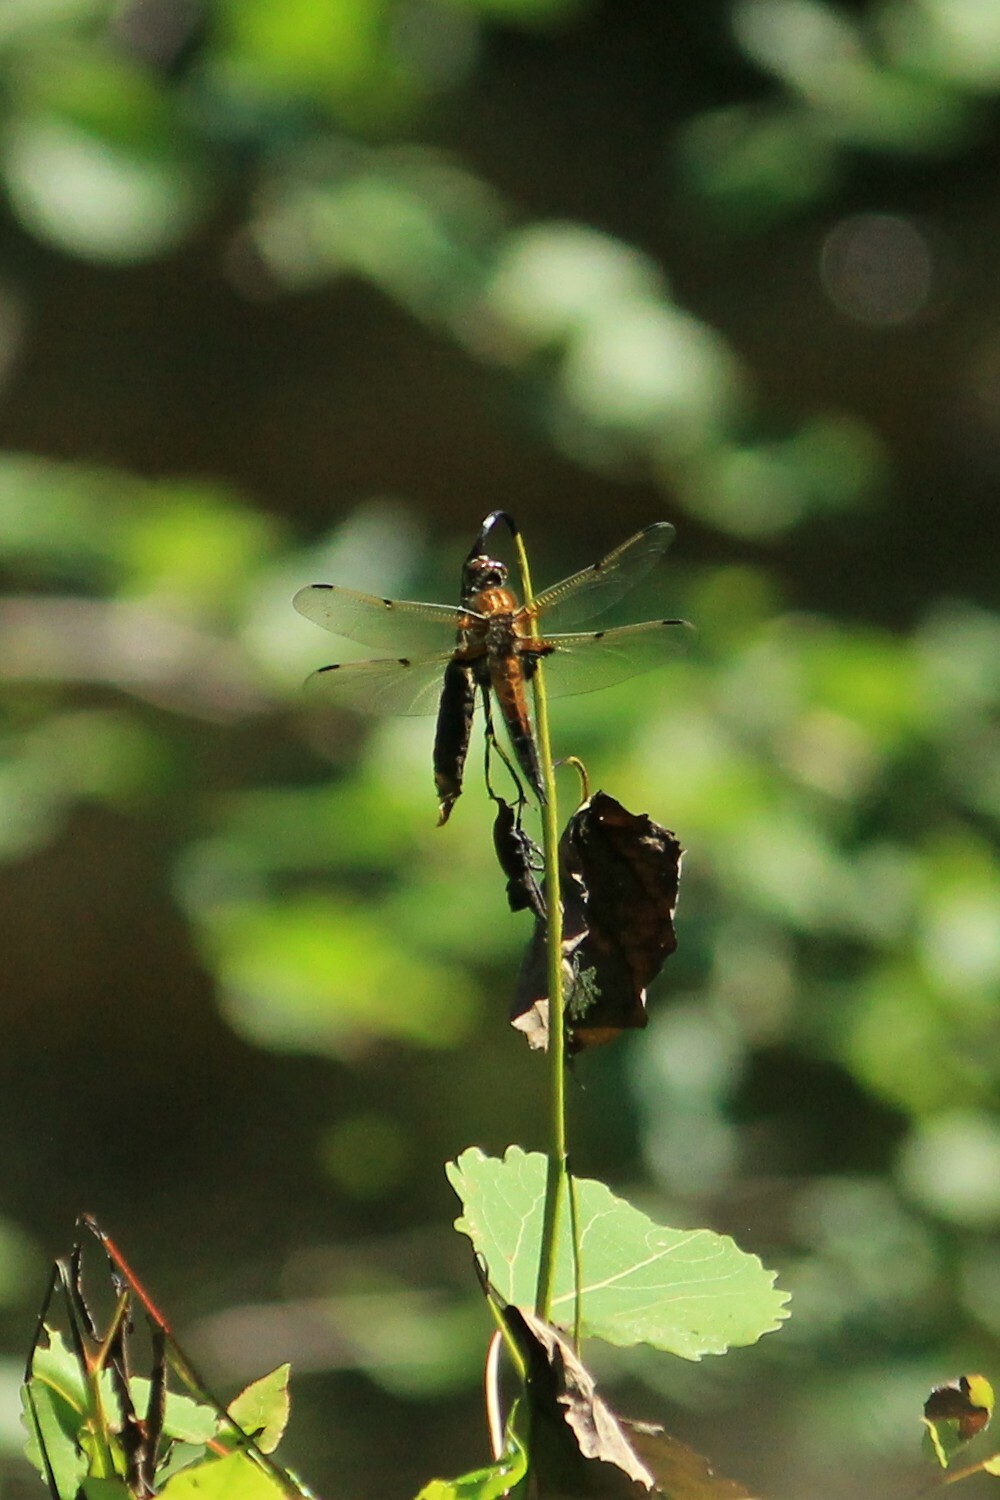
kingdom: Animalia
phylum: Arthropoda
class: Insecta
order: Odonata
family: Libellulidae
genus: Libellula
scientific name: Libellula quadrimaculata
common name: Four-spotted chaser
